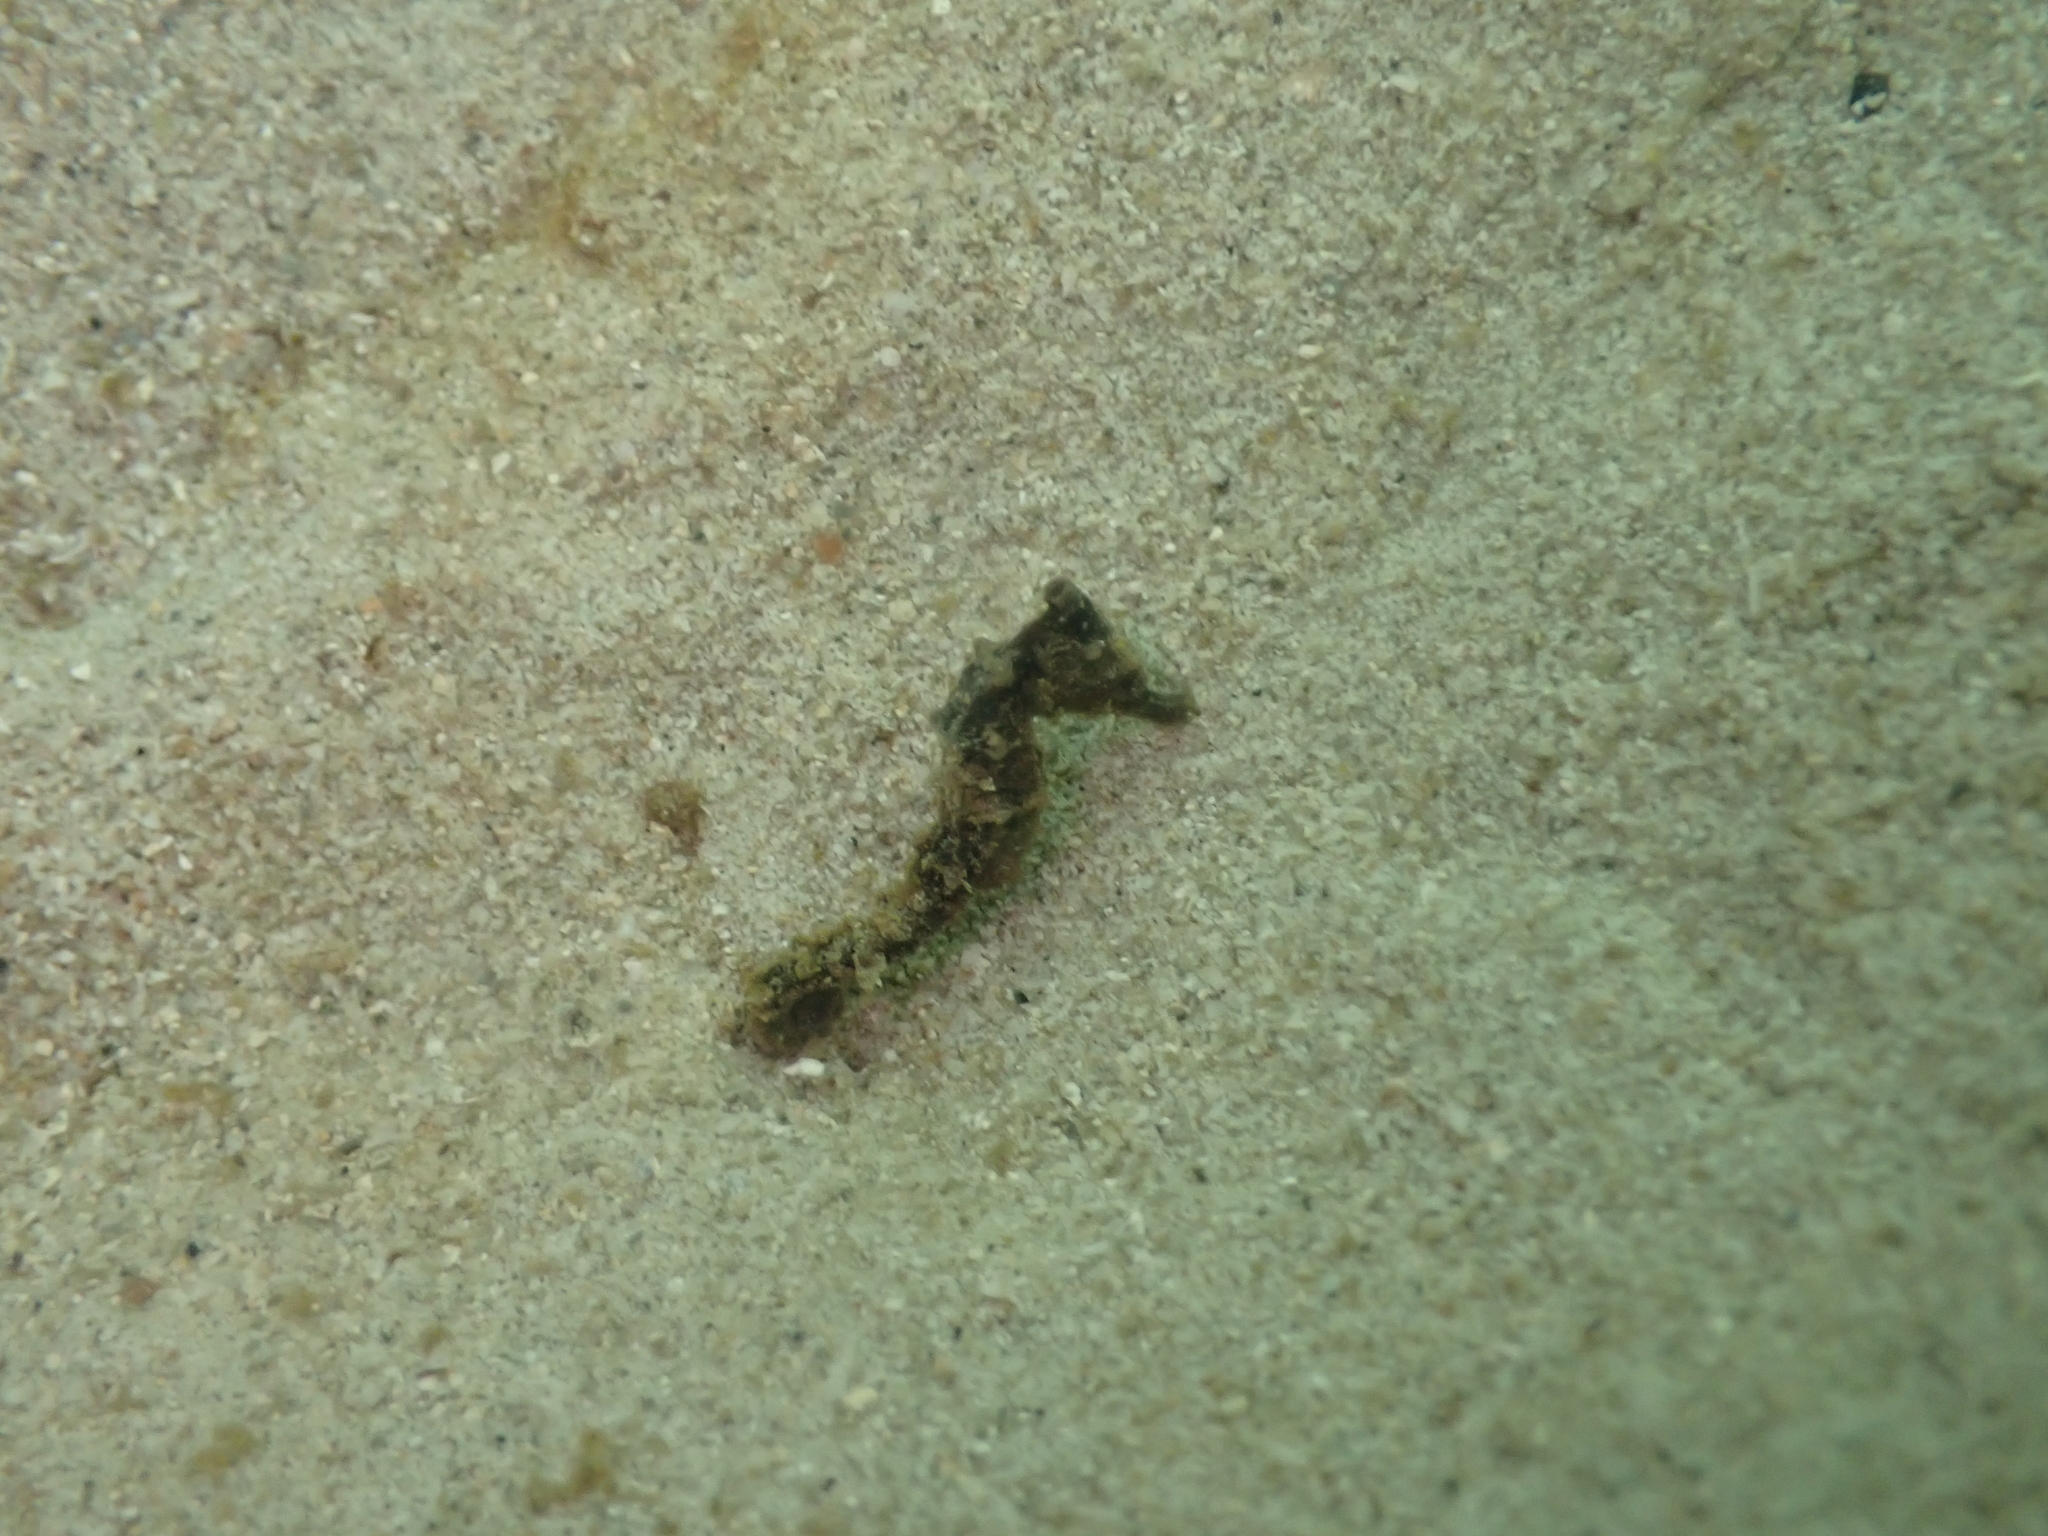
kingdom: Animalia
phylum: Chordata
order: Syngnathiformes
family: Syngnathidae
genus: Hippocampus
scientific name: Hippocampus kuda
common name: Spotted seahorse
